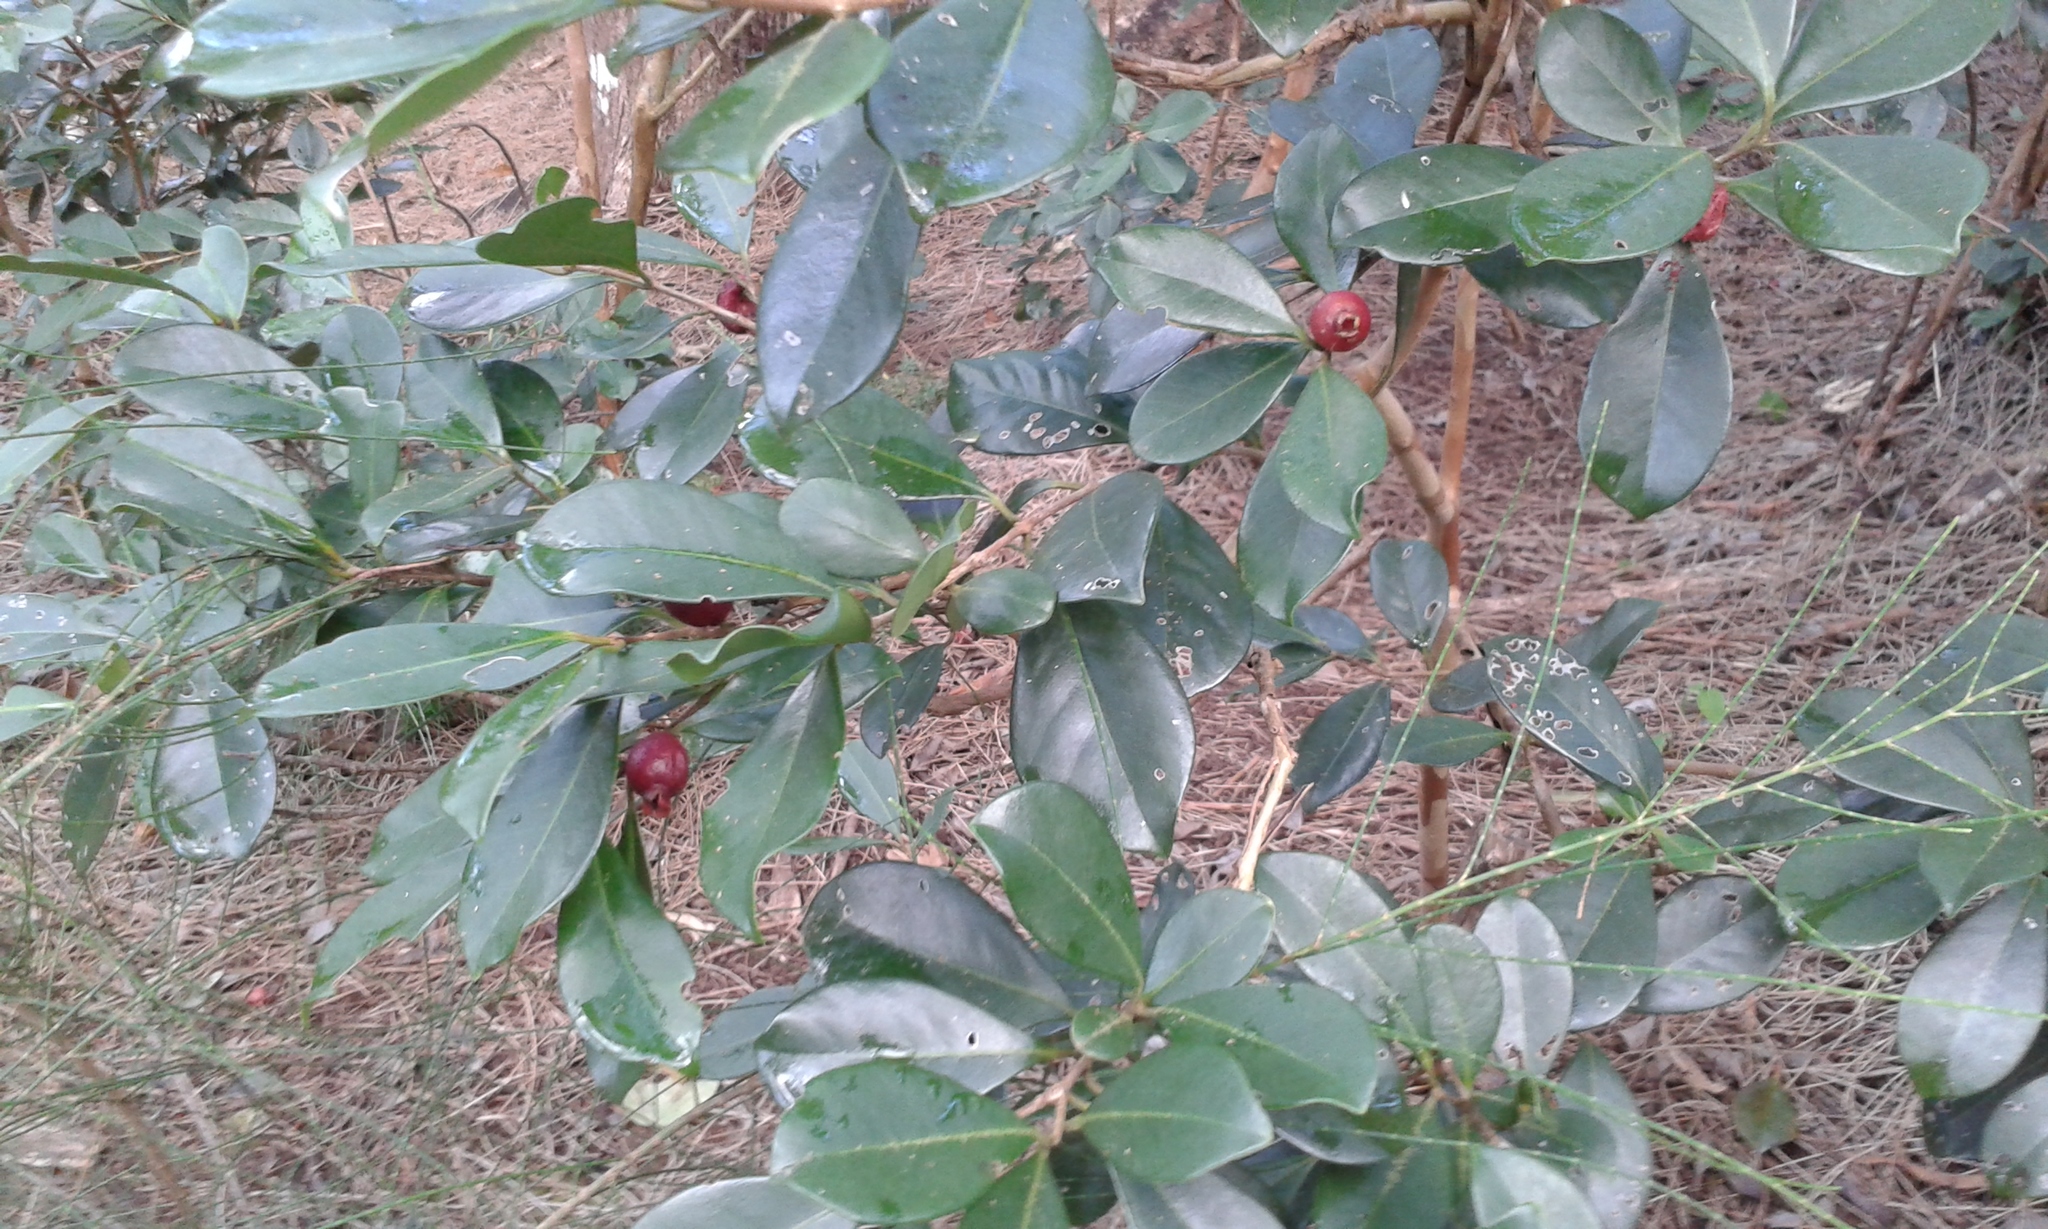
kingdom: Plantae
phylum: Tracheophyta
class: Magnoliopsida
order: Myrtales
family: Myrtaceae
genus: Psidium
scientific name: Psidium cattleianum
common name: Strawberry guava
